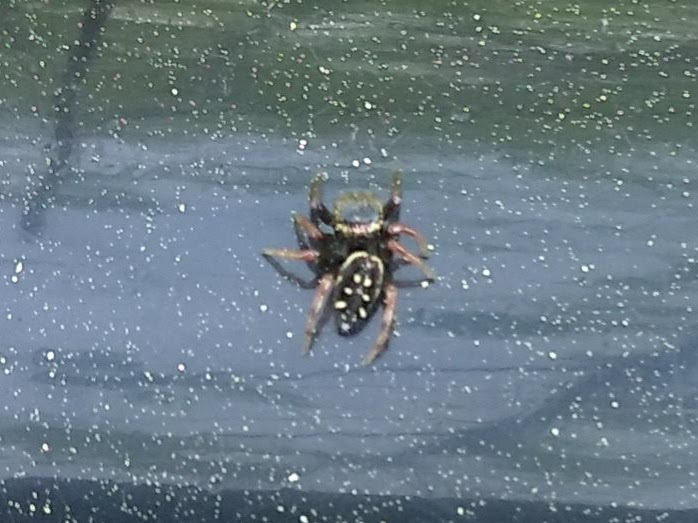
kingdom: Animalia
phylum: Arthropoda
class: Arachnida
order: Araneae
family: Salticidae
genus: Paraphidippus
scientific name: Paraphidippus aurantius
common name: Jumping spiders
